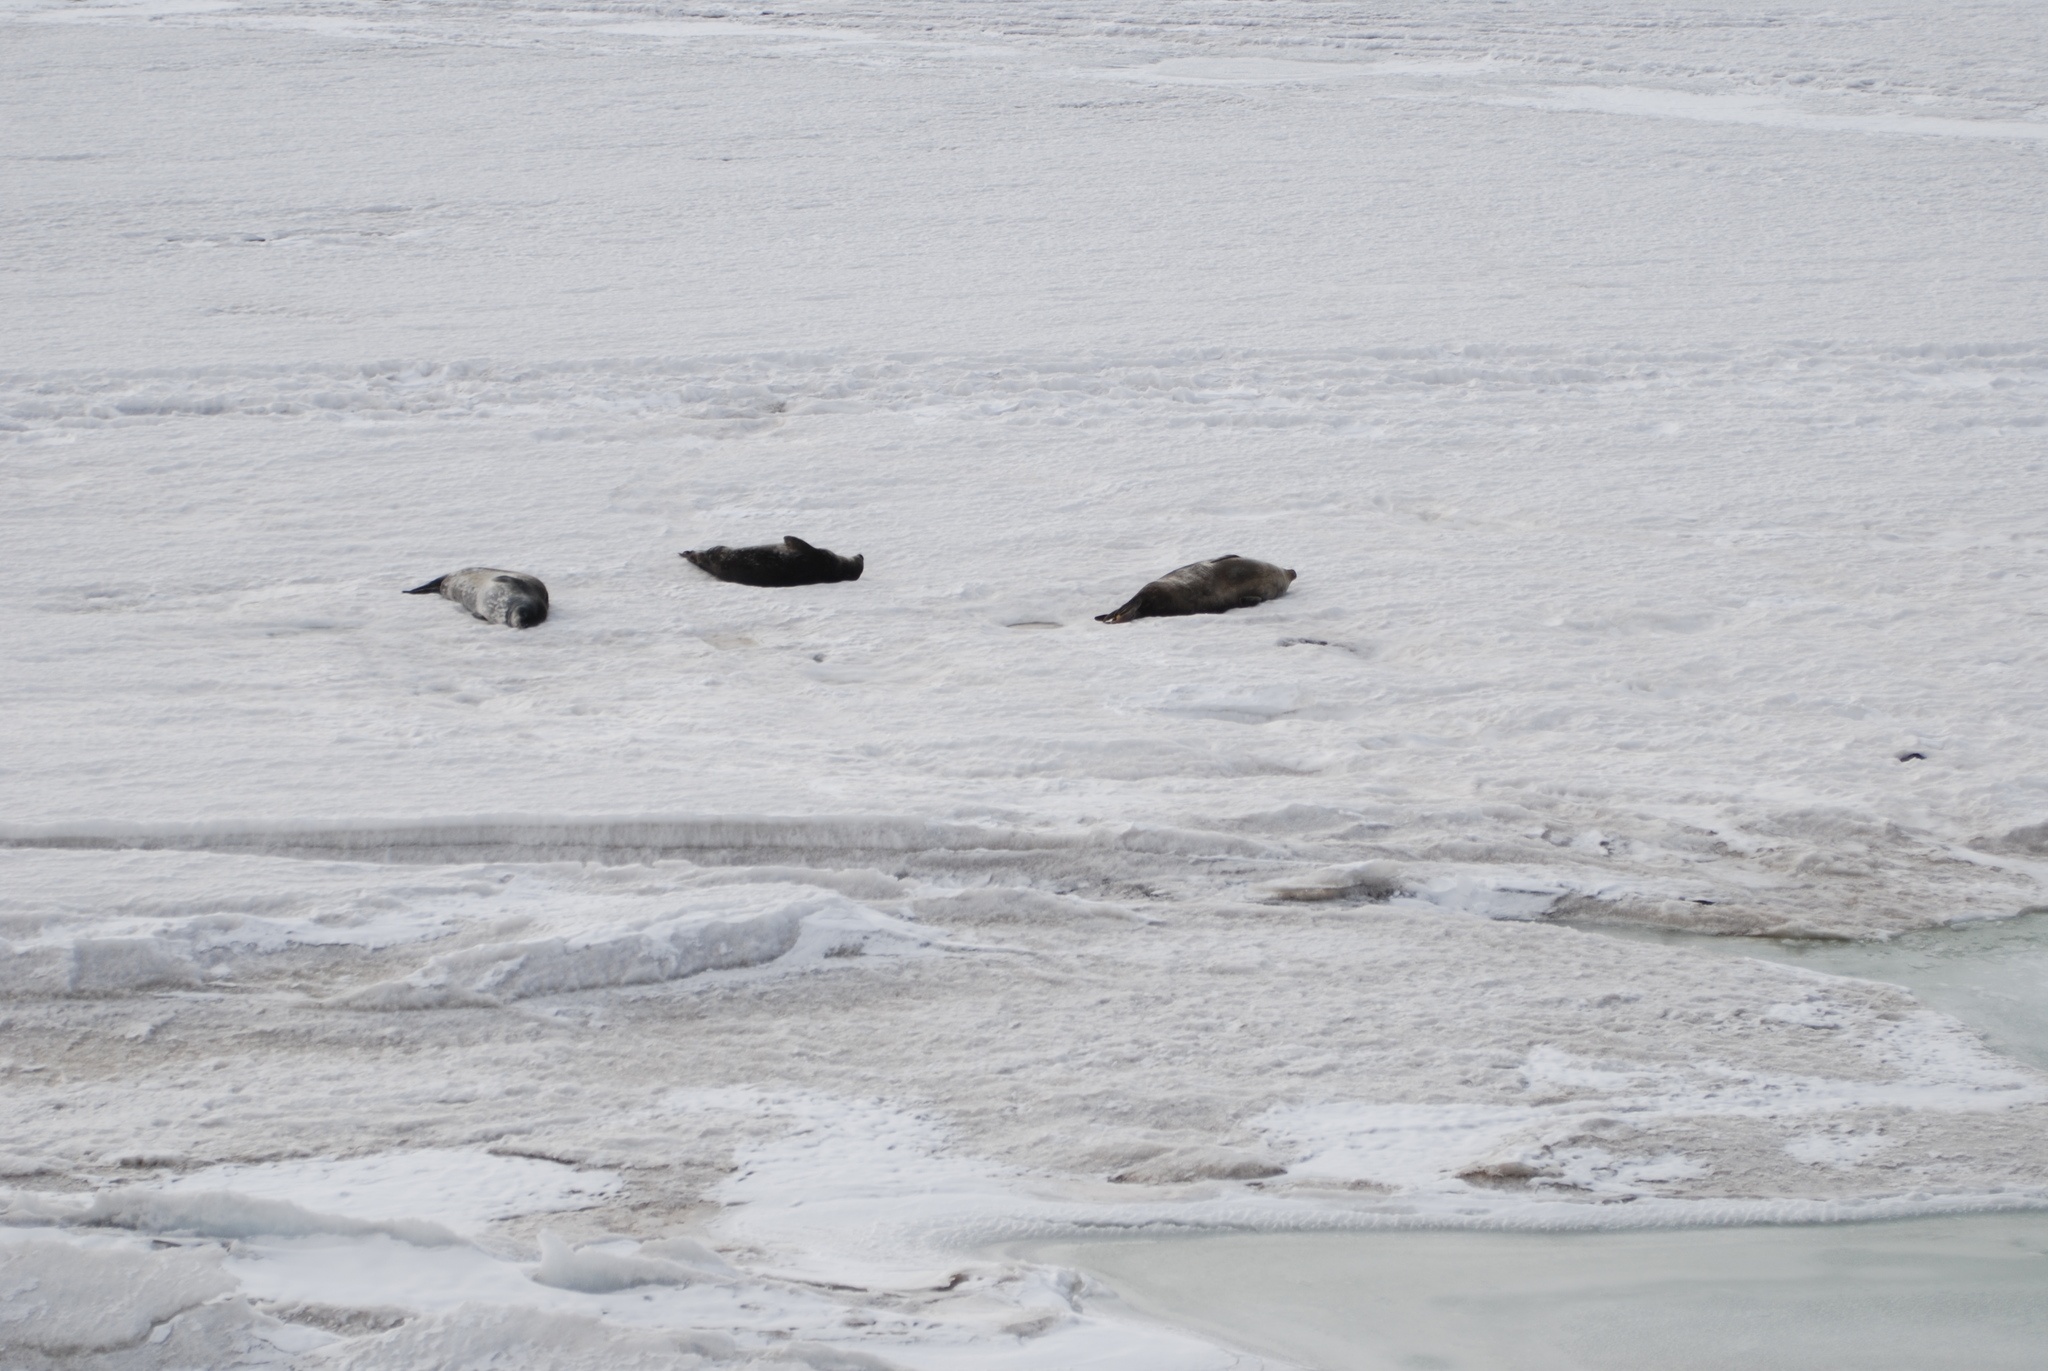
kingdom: Animalia
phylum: Chordata
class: Mammalia
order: Carnivora
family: Phocidae
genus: Leptonychotes
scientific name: Leptonychotes weddellii
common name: Weddell seal
